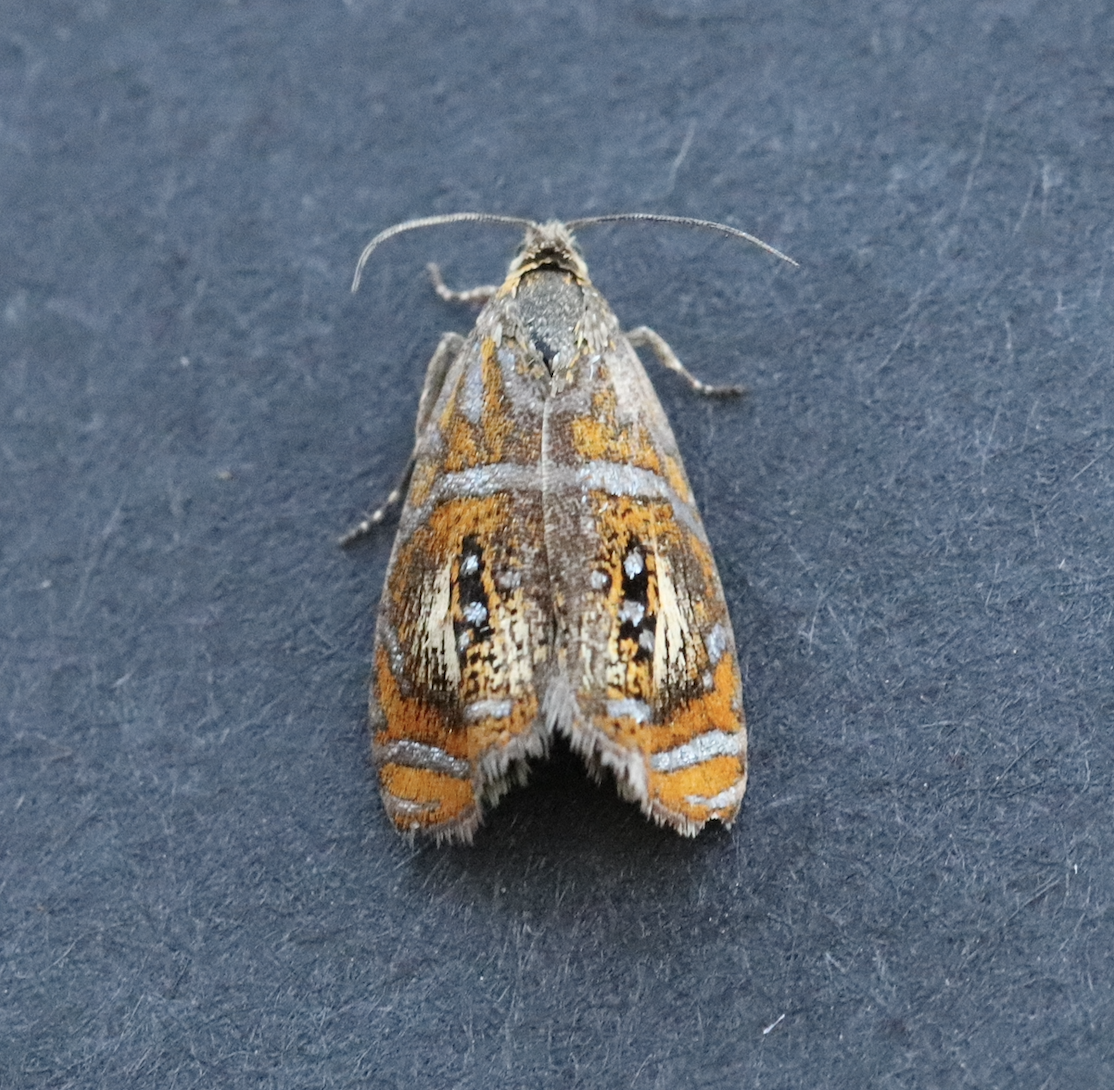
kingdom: Animalia
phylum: Arthropoda
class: Insecta
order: Lepidoptera
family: Tortricidae
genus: Olethreutes
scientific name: Olethreutes arcuella
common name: Arched marble
